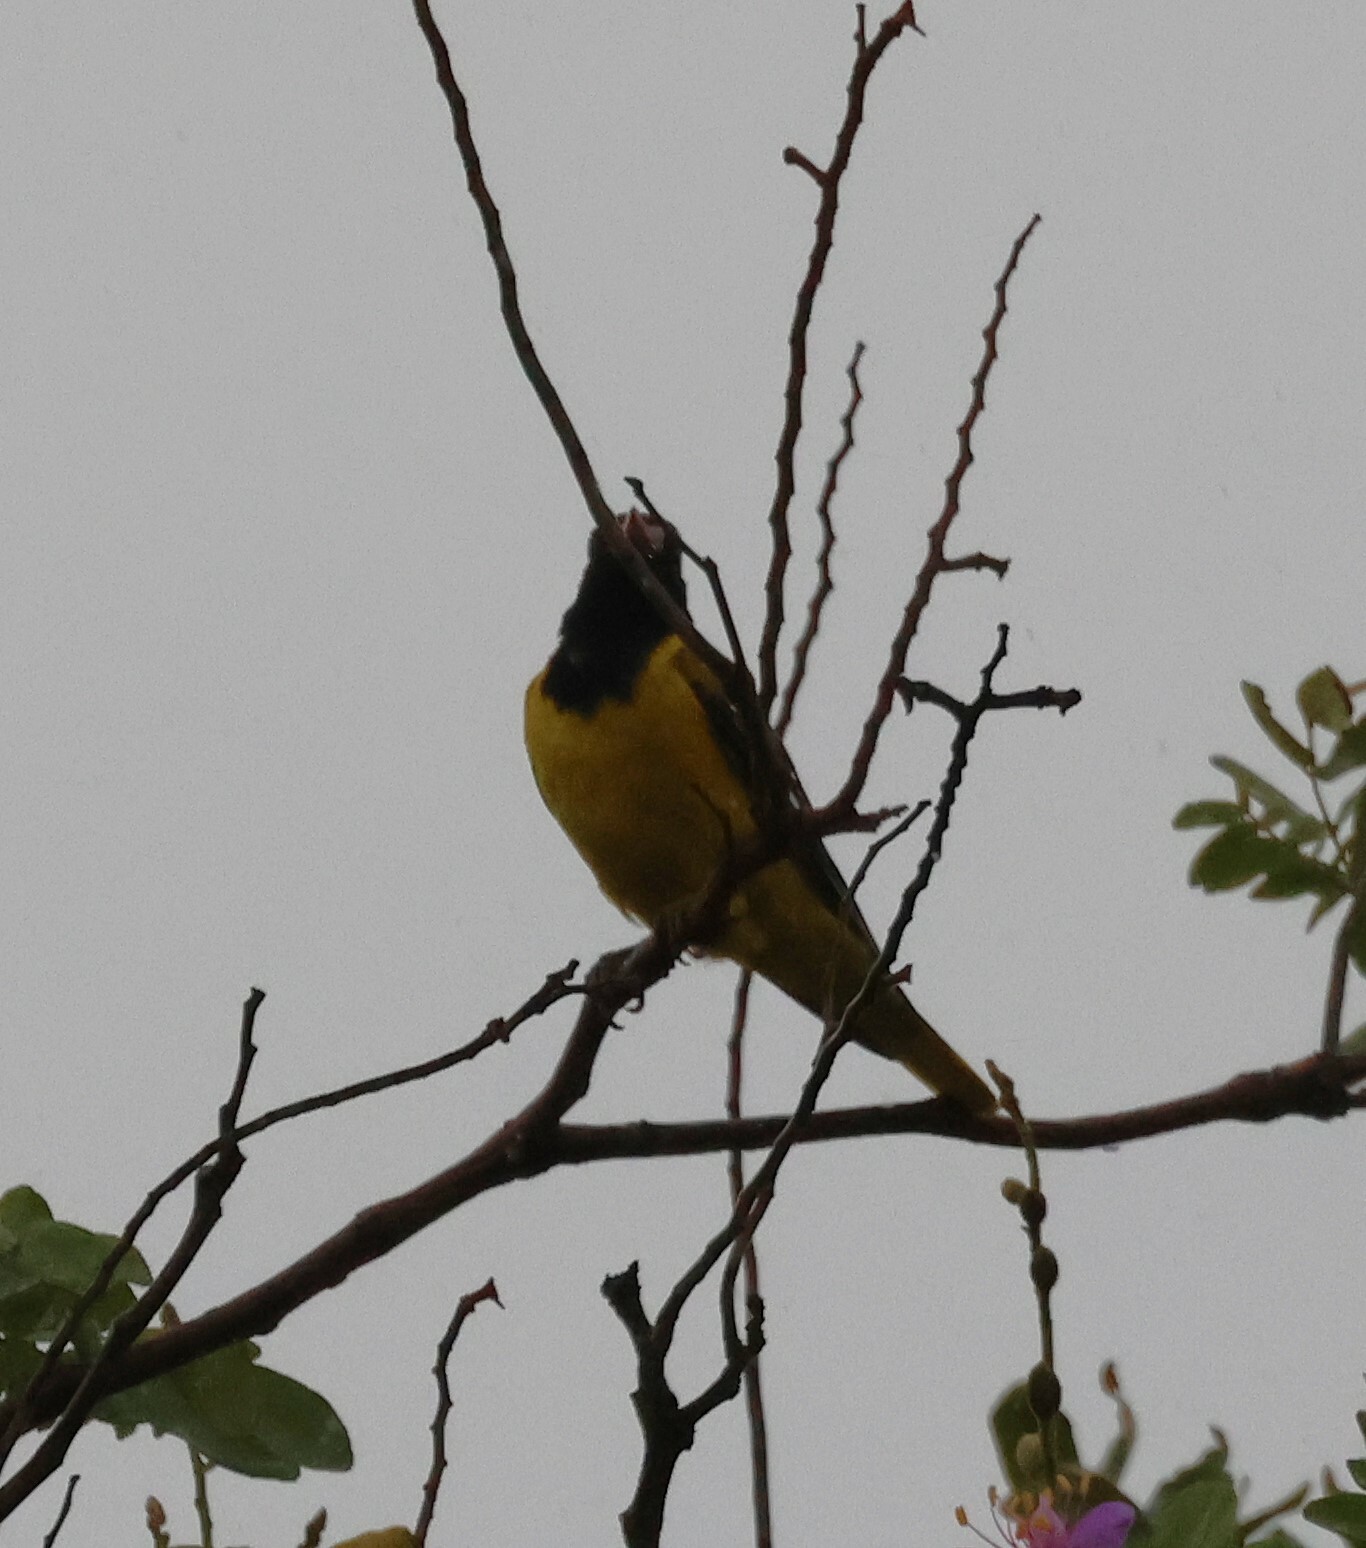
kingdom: Animalia
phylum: Chordata
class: Aves
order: Passeriformes
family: Oriolidae
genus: Oriolus
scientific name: Oriolus larvatus
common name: Black-headed oriole
